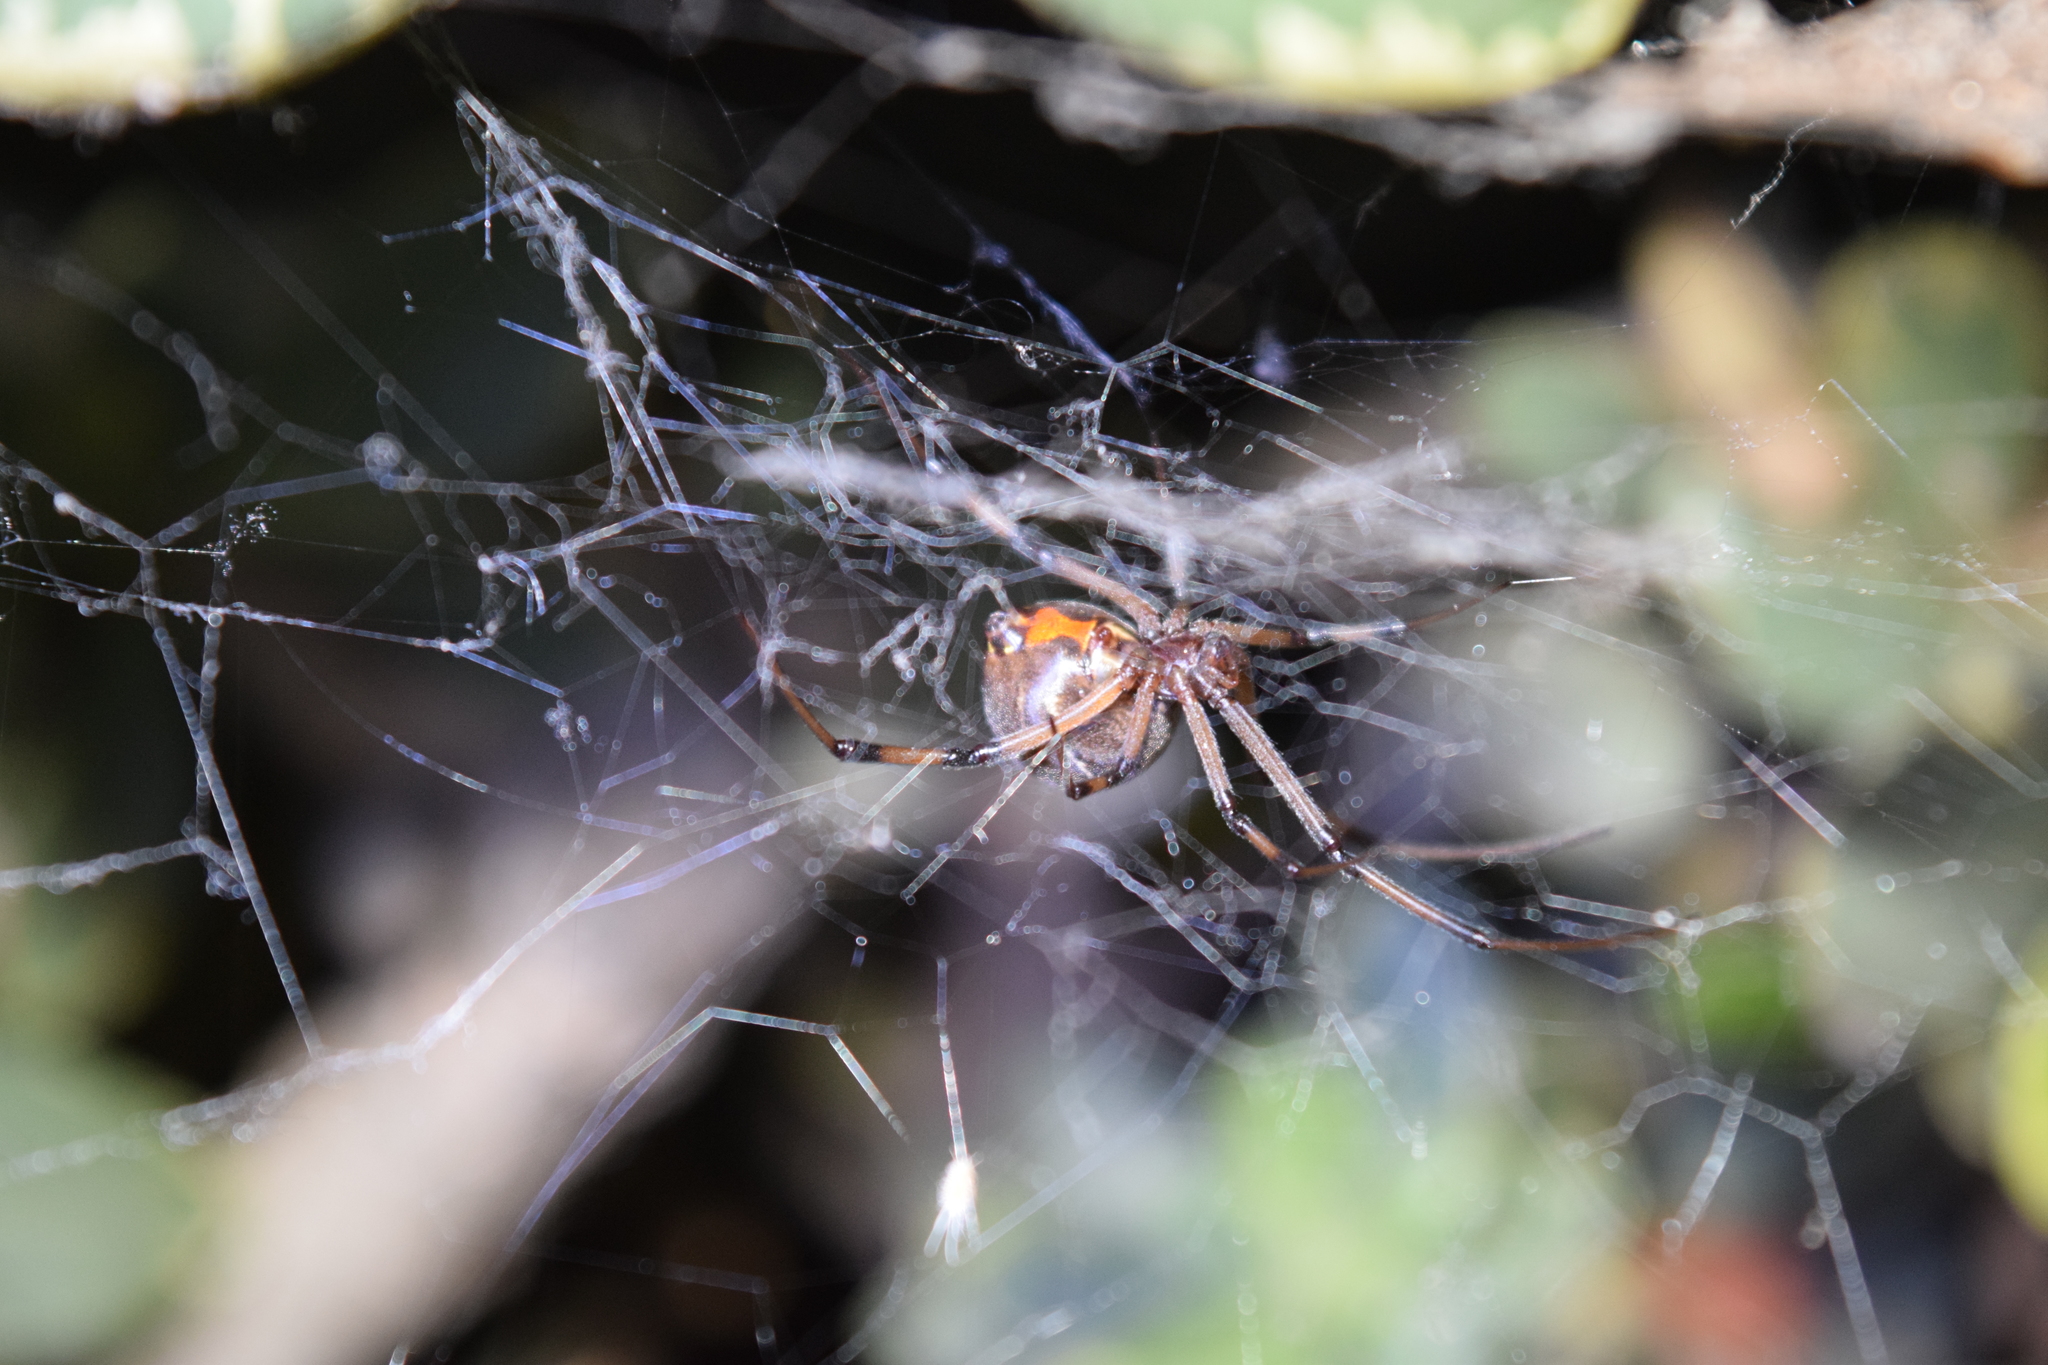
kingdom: Animalia
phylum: Arthropoda
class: Arachnida
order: Araneae
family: Theridiidae
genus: Latrodectus
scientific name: Latrodectus geometricus
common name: Brown widow spider
